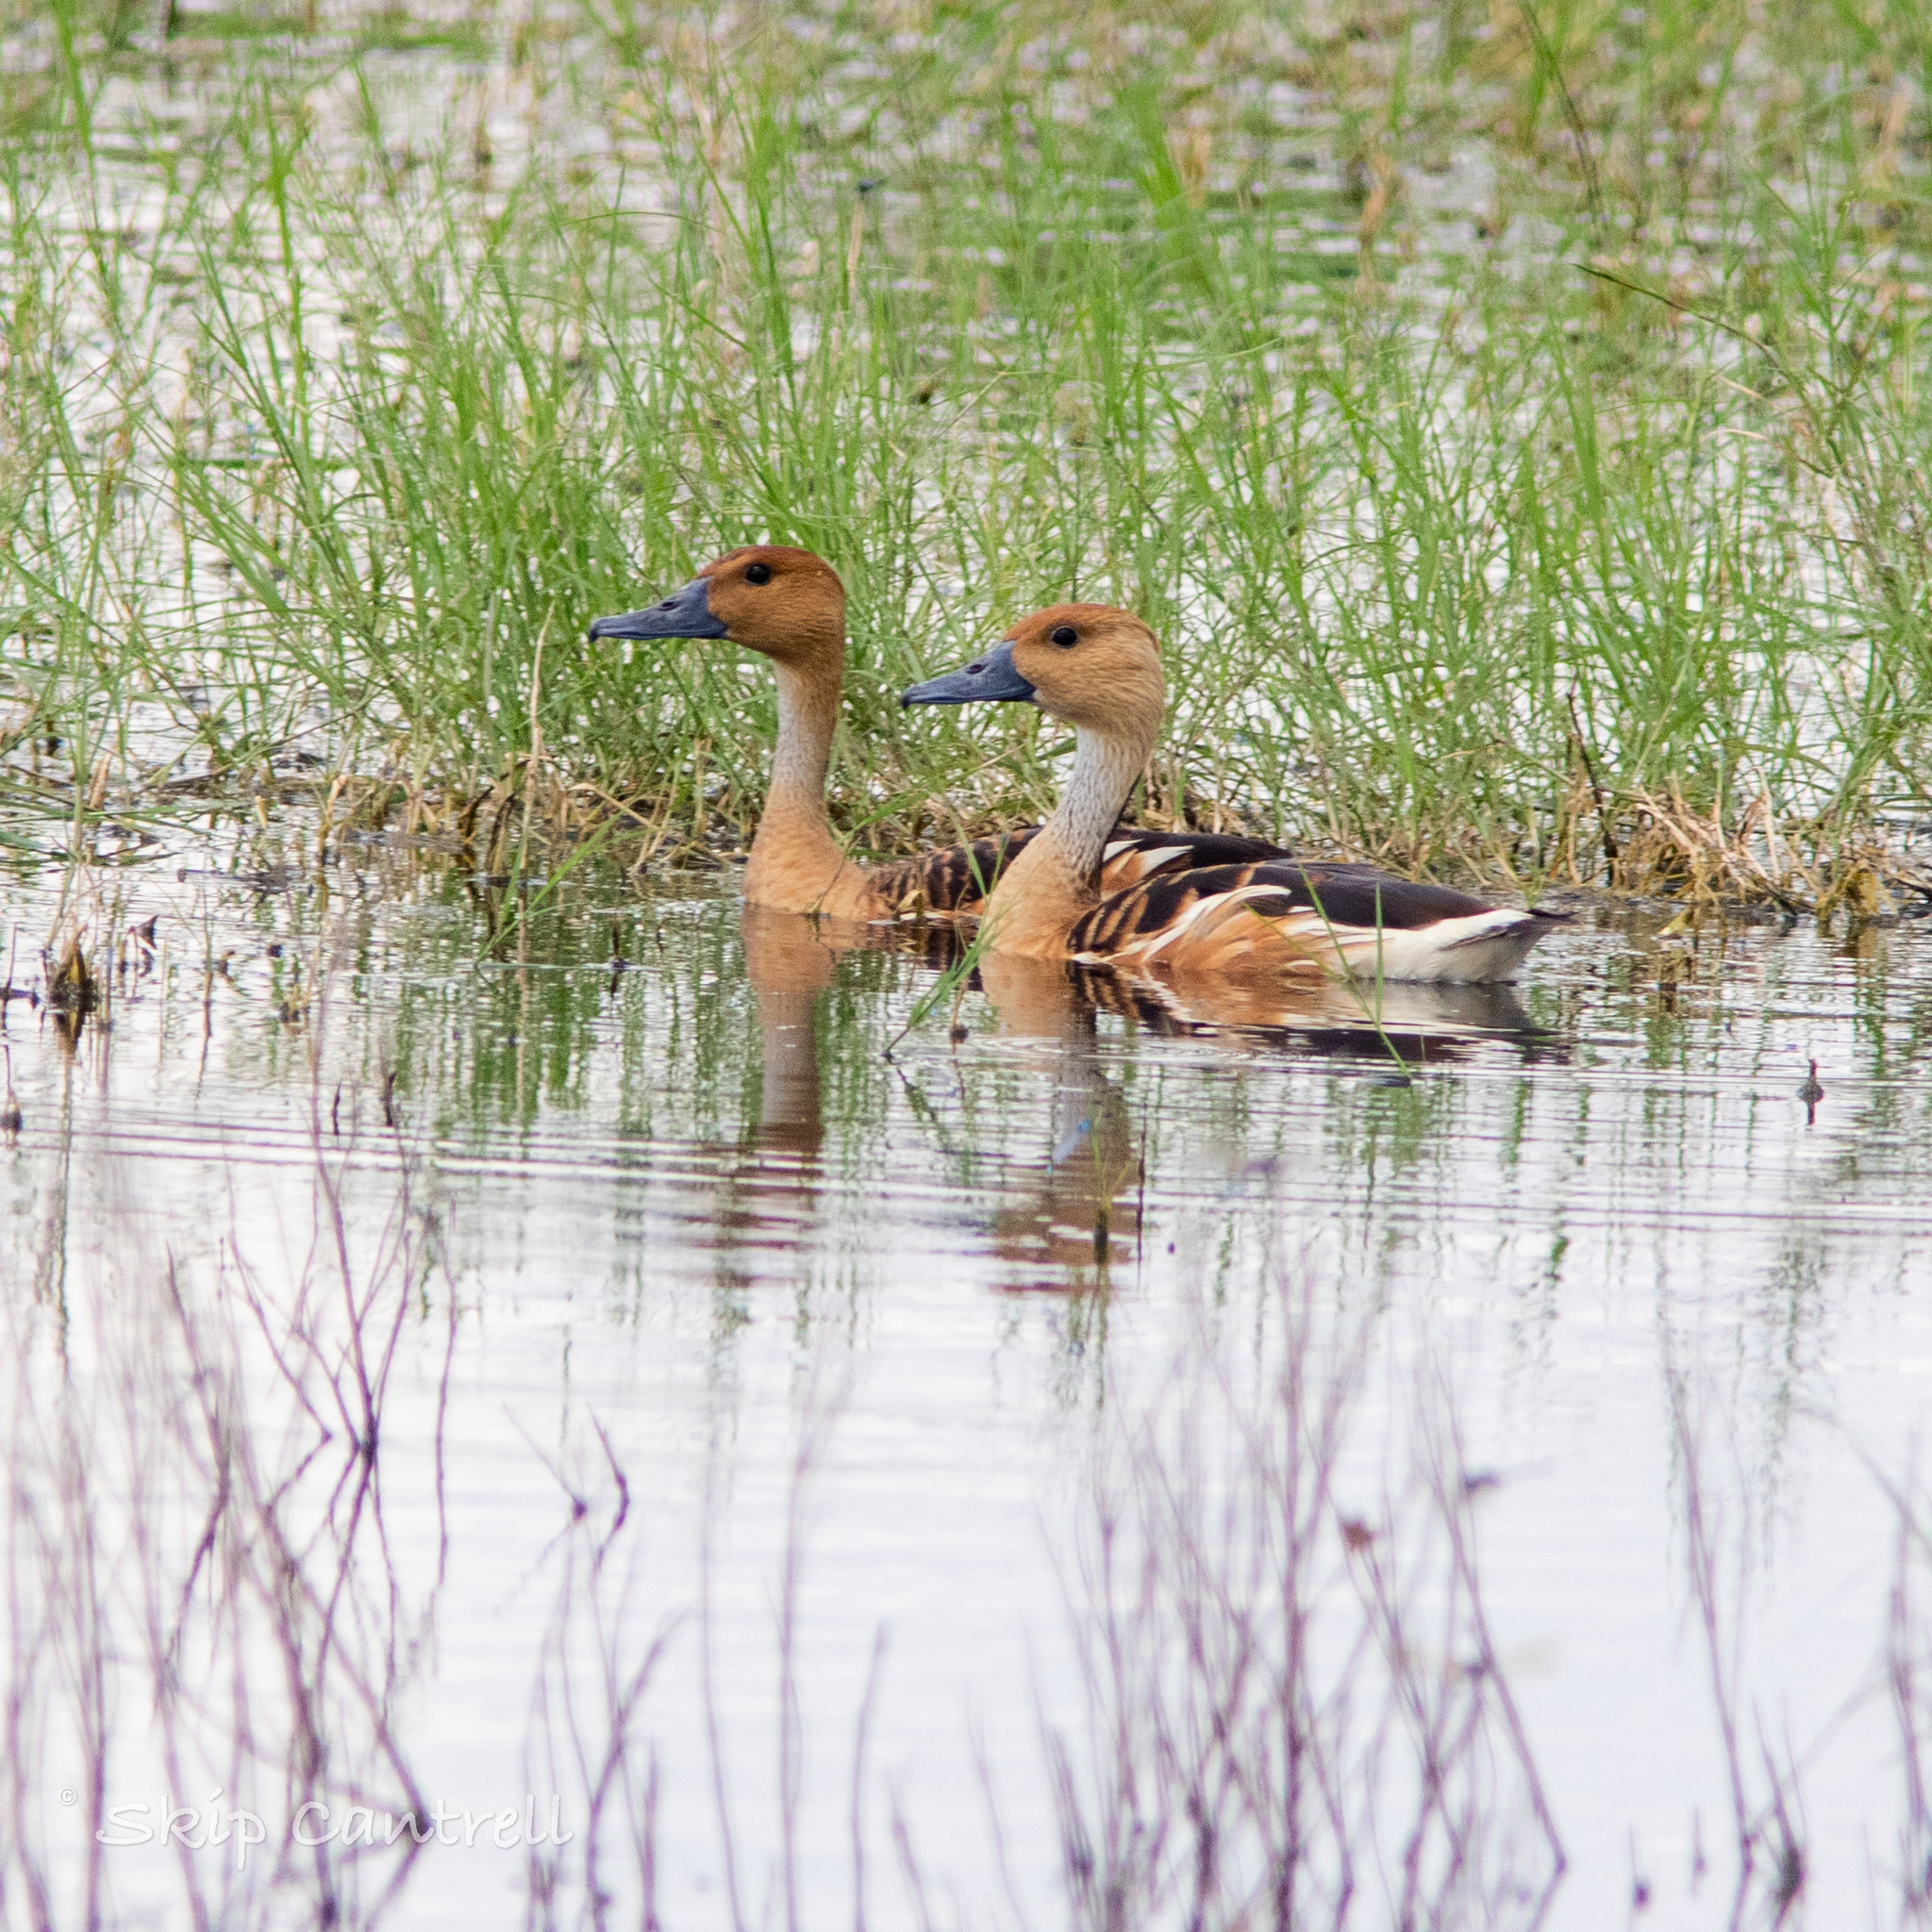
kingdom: Animalia
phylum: Chordata
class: Aves
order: Anseriformes
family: Anatidae
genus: Dendrocygna
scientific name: Dendrocygna bicolor
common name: Fulvous whistling duck
